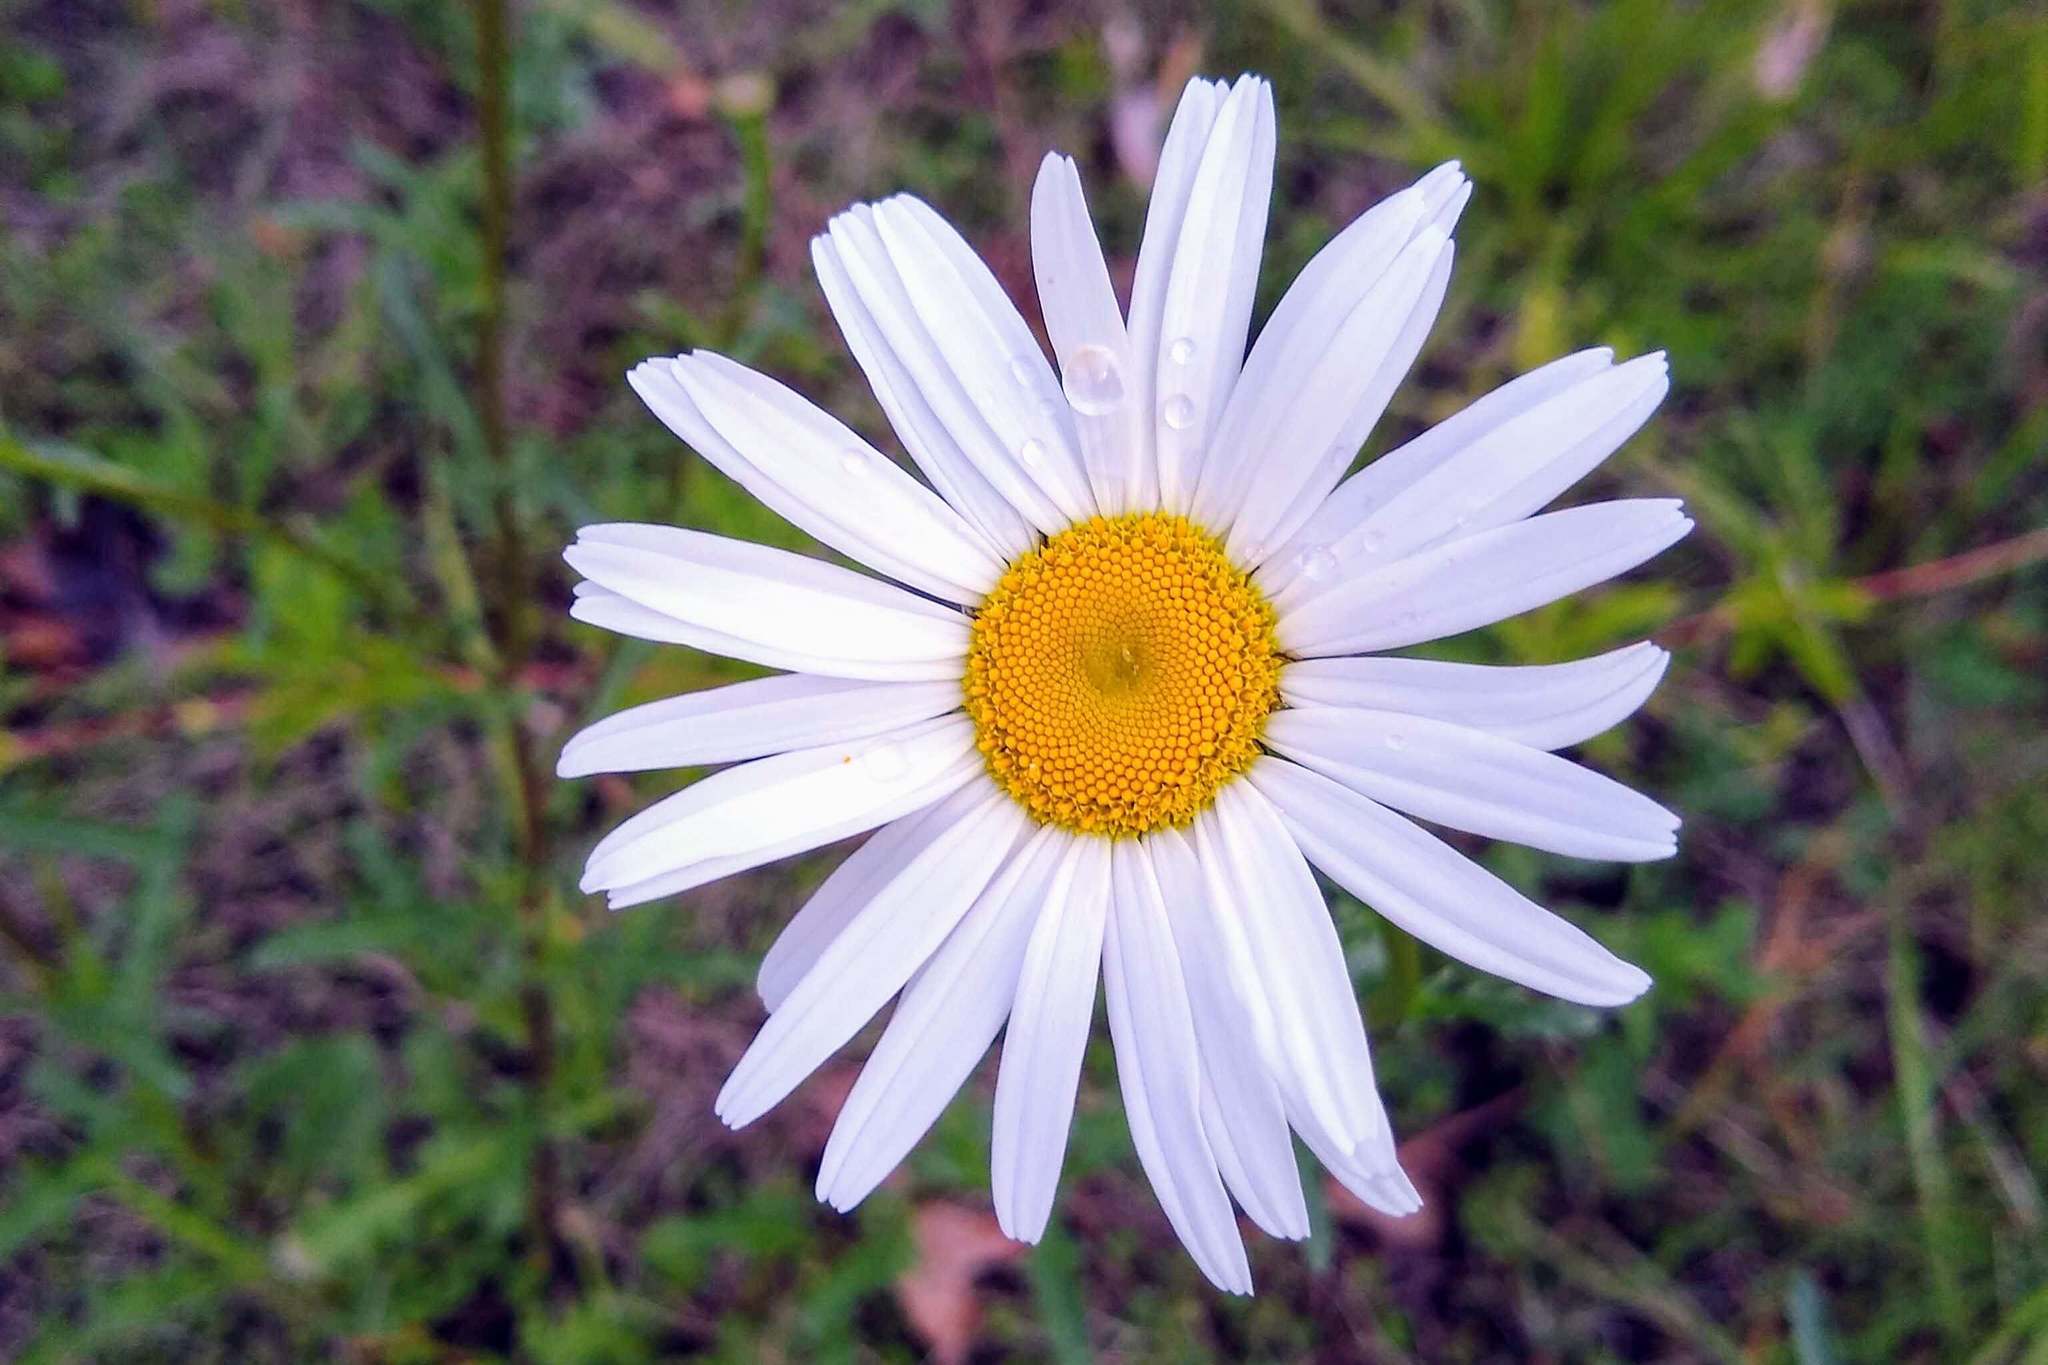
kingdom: Plantae
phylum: Tracheophyta
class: Magnoliopsida
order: Asterales
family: Asteraceae
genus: Leucanthemum
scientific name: Leucanthemum vulgare
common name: Oxeye daisy
